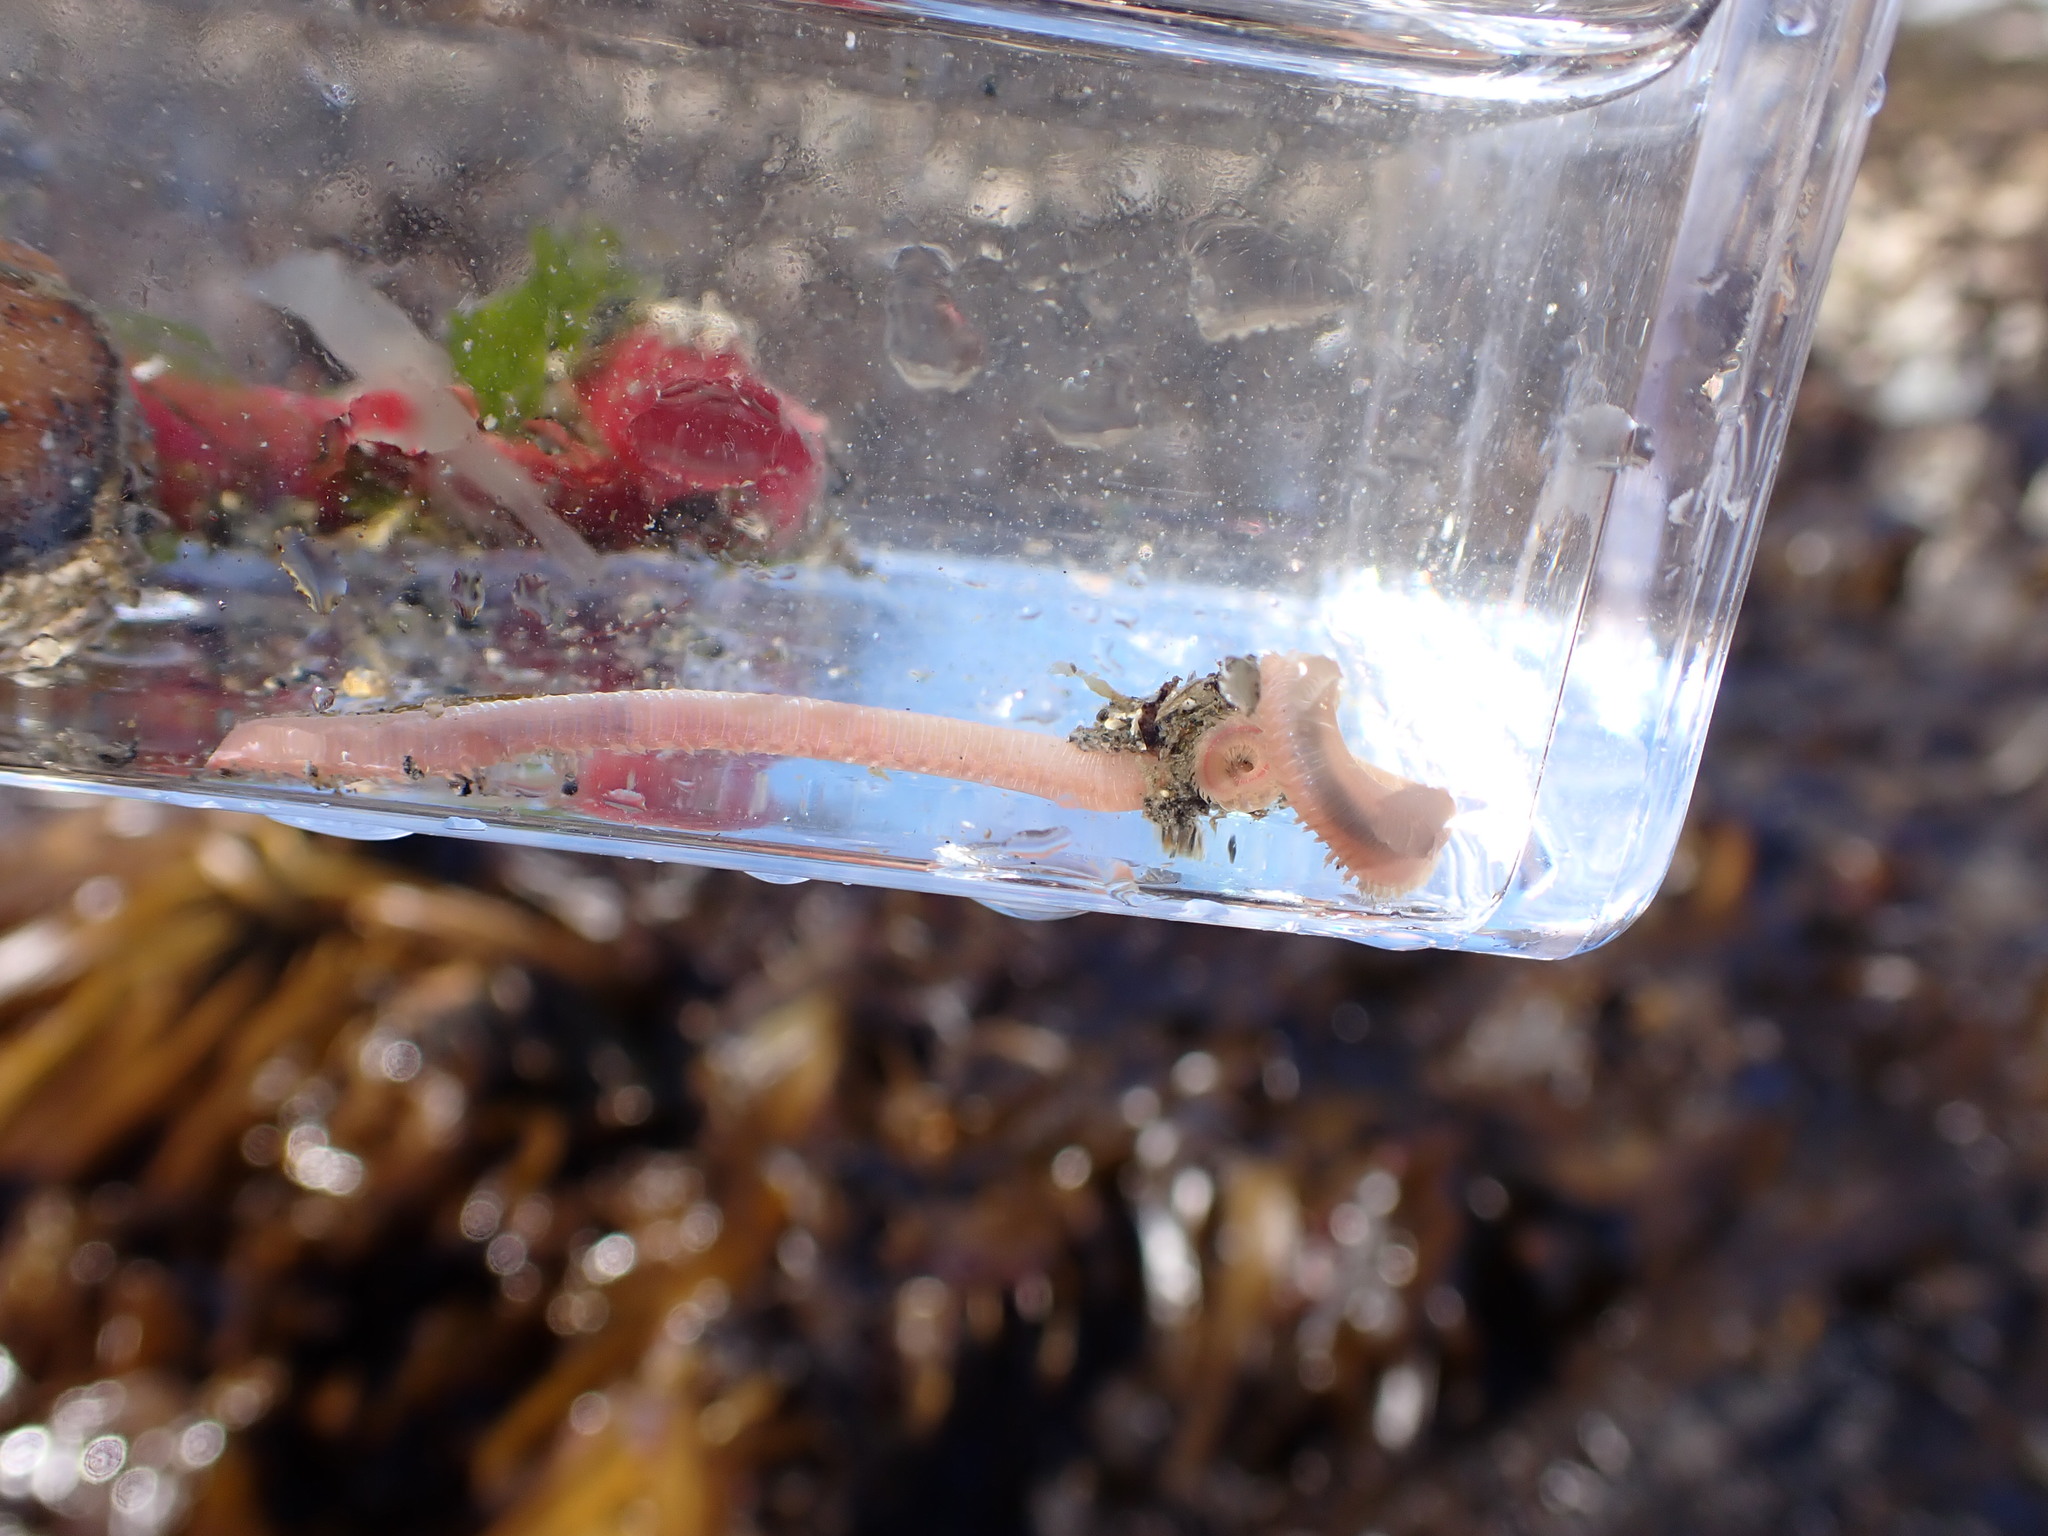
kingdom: Animalia
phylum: Annelida
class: Polychaeta
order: Phyllodocida
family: Glyceridae
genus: Hemipodia
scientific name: Hemipodia simplex
